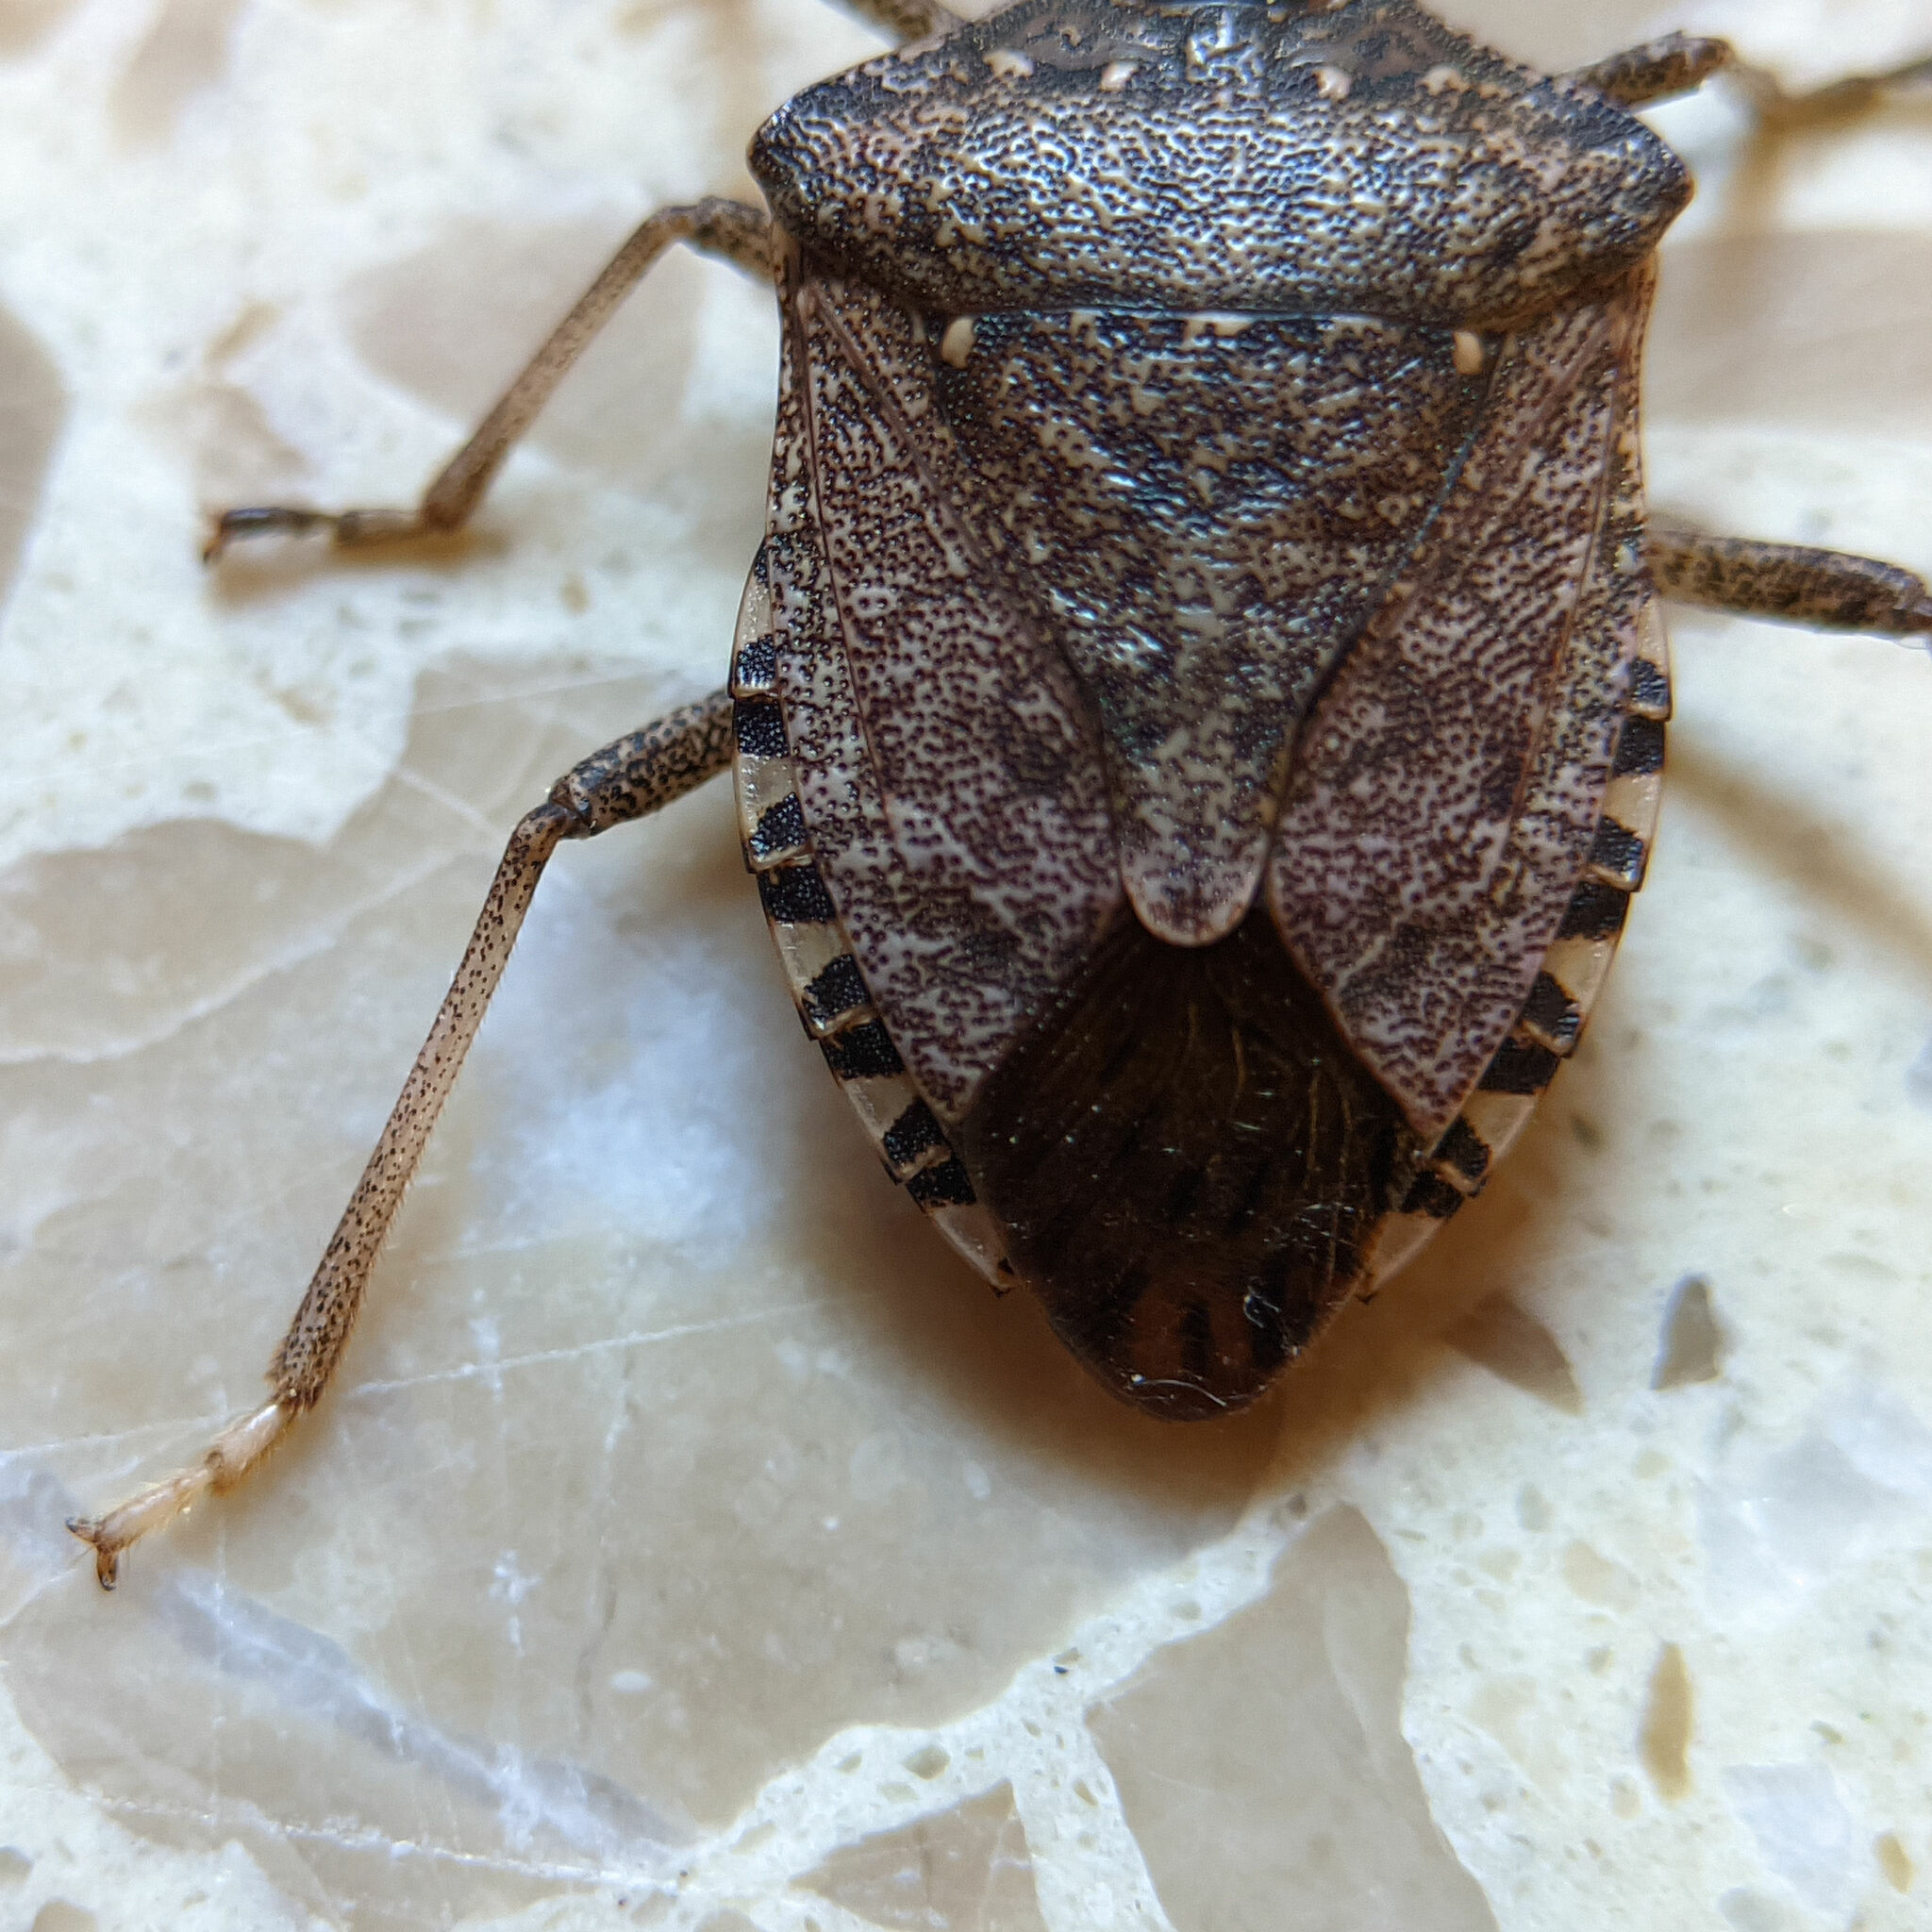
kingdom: Animalia
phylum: Arthropoda
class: Insecta
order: Hemiptera
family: Pentatomidae
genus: Halyomorpha
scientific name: Halyomorpha halys
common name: Brown marmorated stink bug
